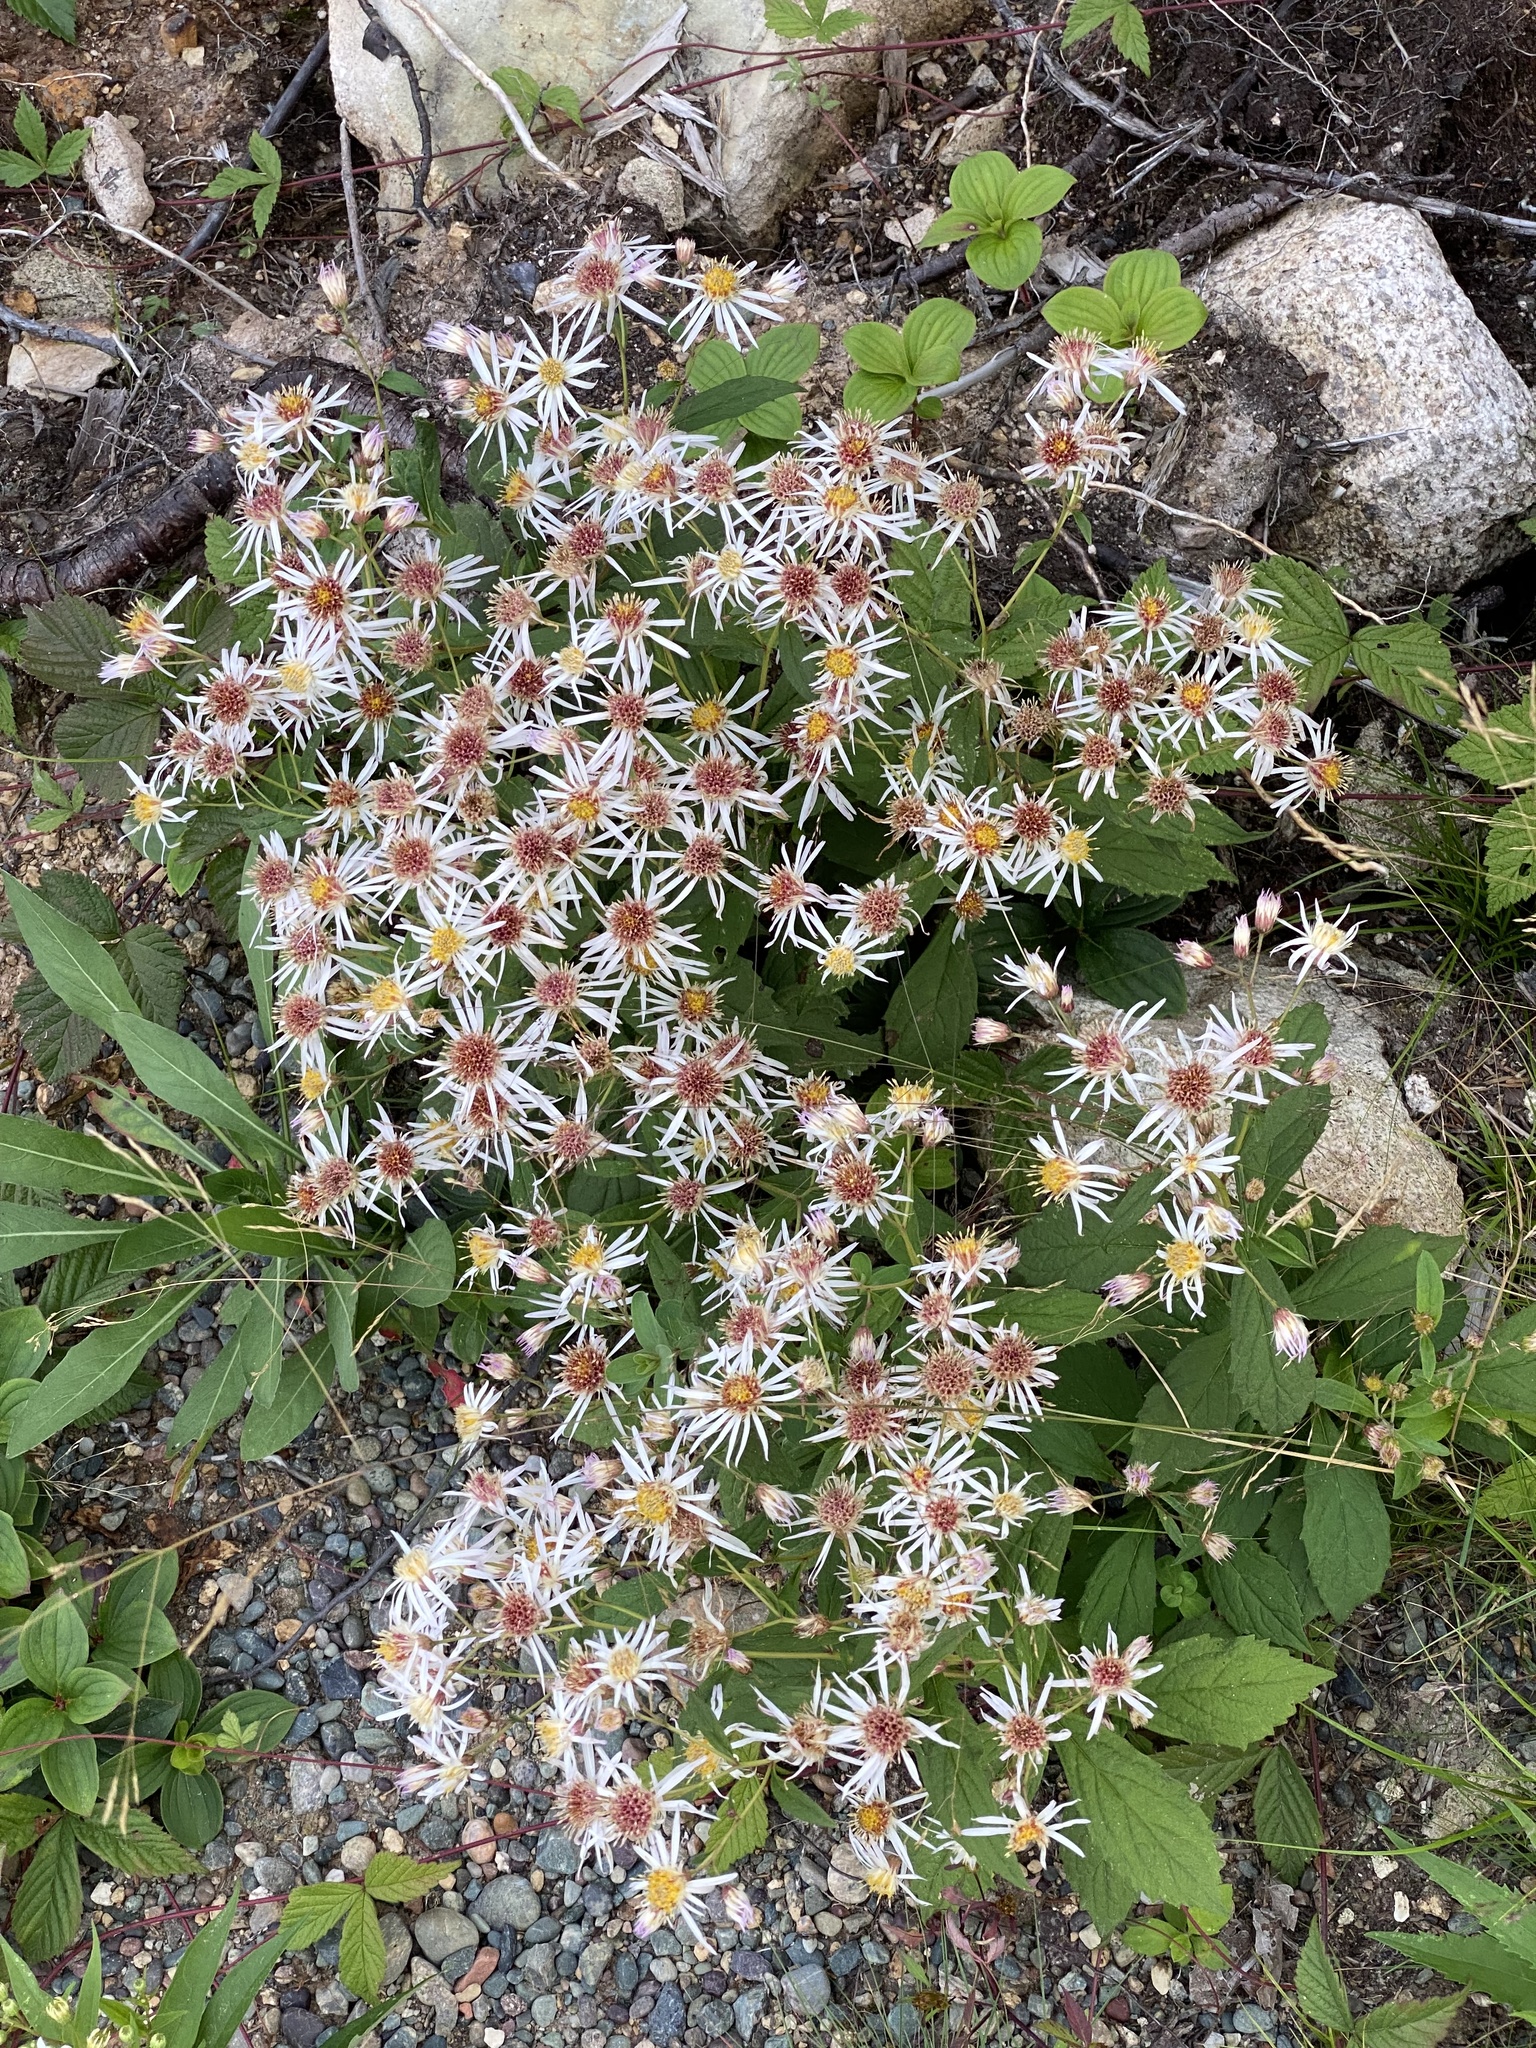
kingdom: Plantae
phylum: Tracheophyta
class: Magnoliopsida
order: Asterales
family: Asteraceae
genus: Oclemena
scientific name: Oclemena acuminata
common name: Mountain aster
